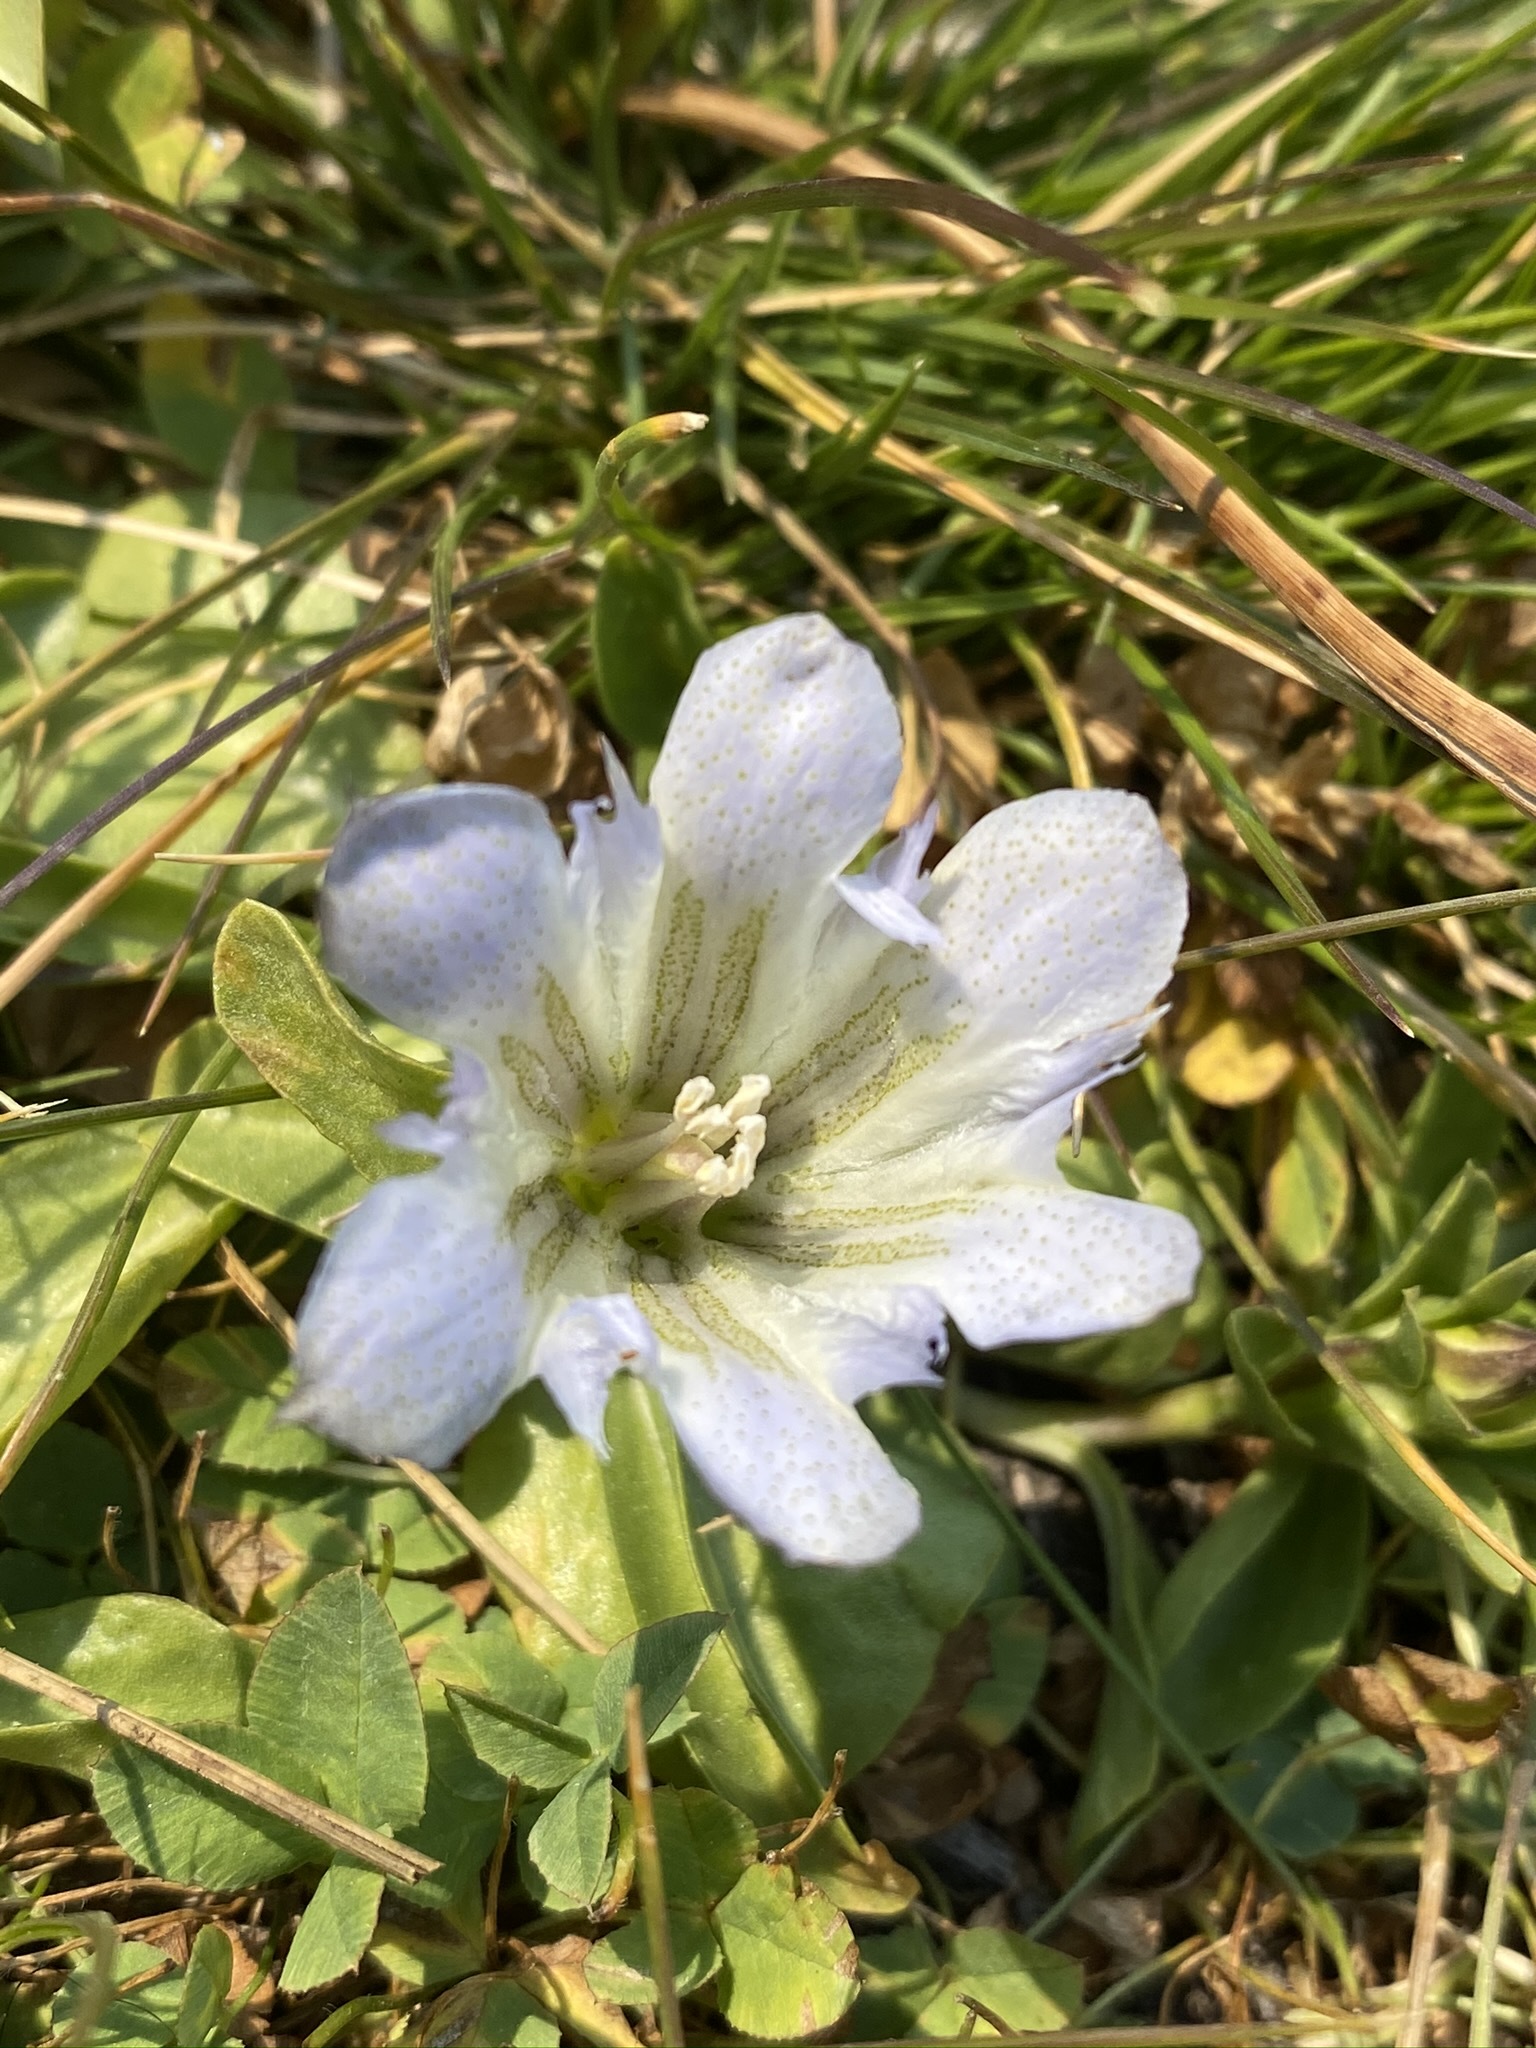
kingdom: Plantae
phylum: Tracheophyta
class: Magnoliopsida
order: Gentianales
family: Gentianaceae
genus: Gentiana
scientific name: Gentiana newberryi
